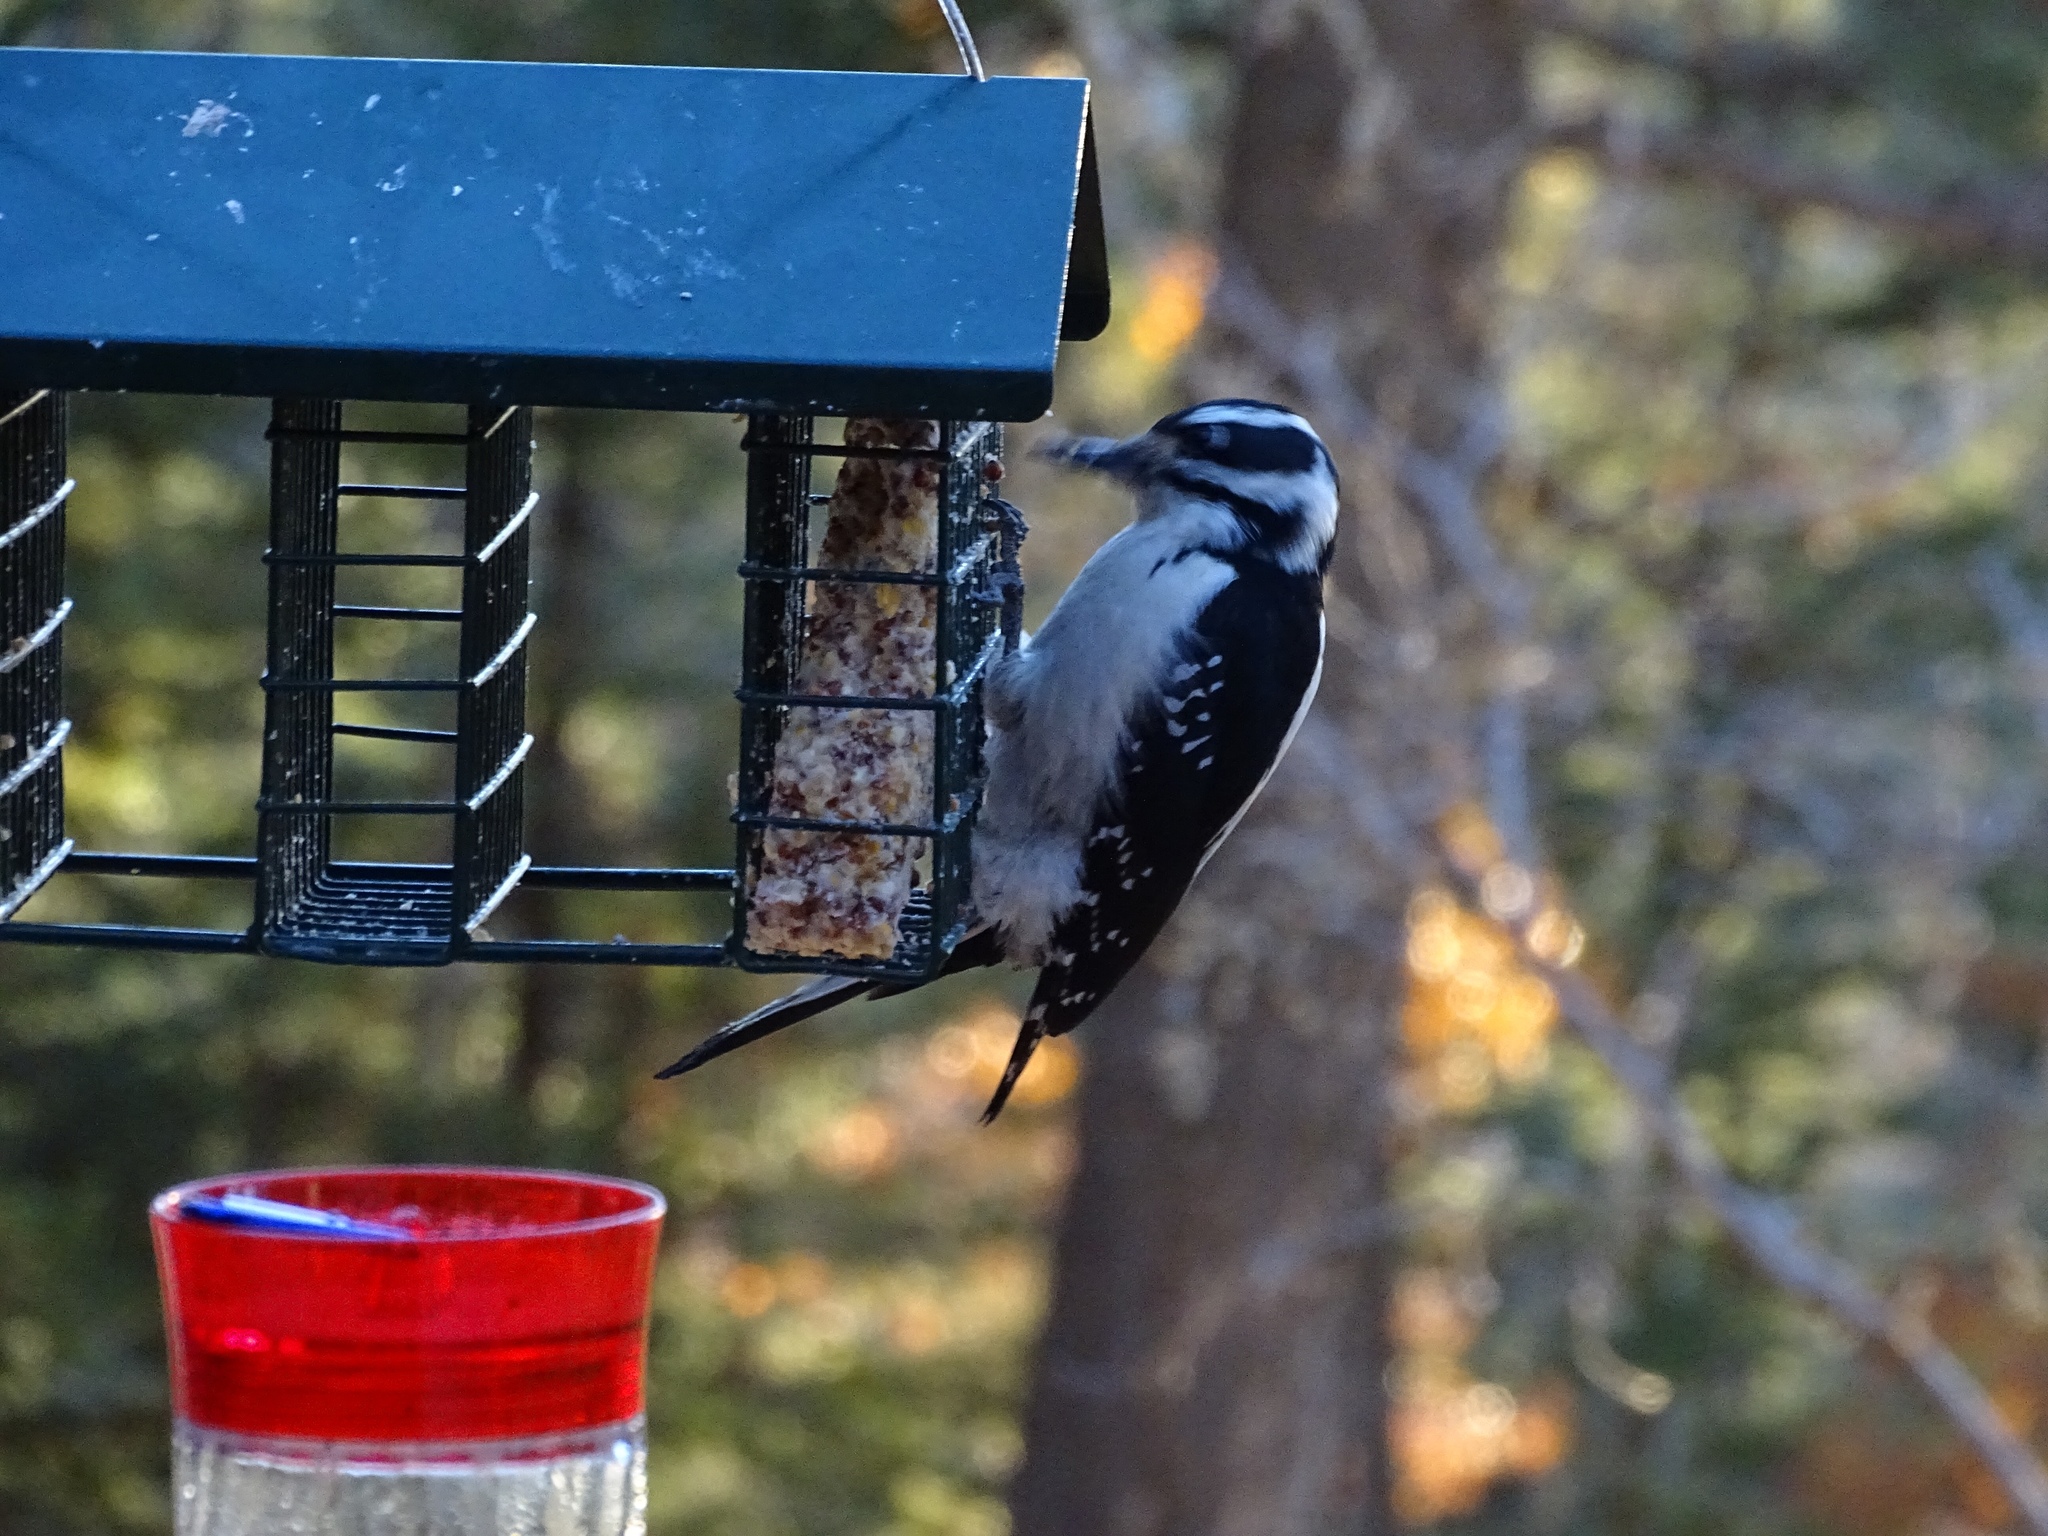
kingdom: Animalia
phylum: Chordata
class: Aves
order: Piciformes
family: Picidae
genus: Leuconotopicus
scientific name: Leuconotopicus villosus
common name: Hairy woodpecker
